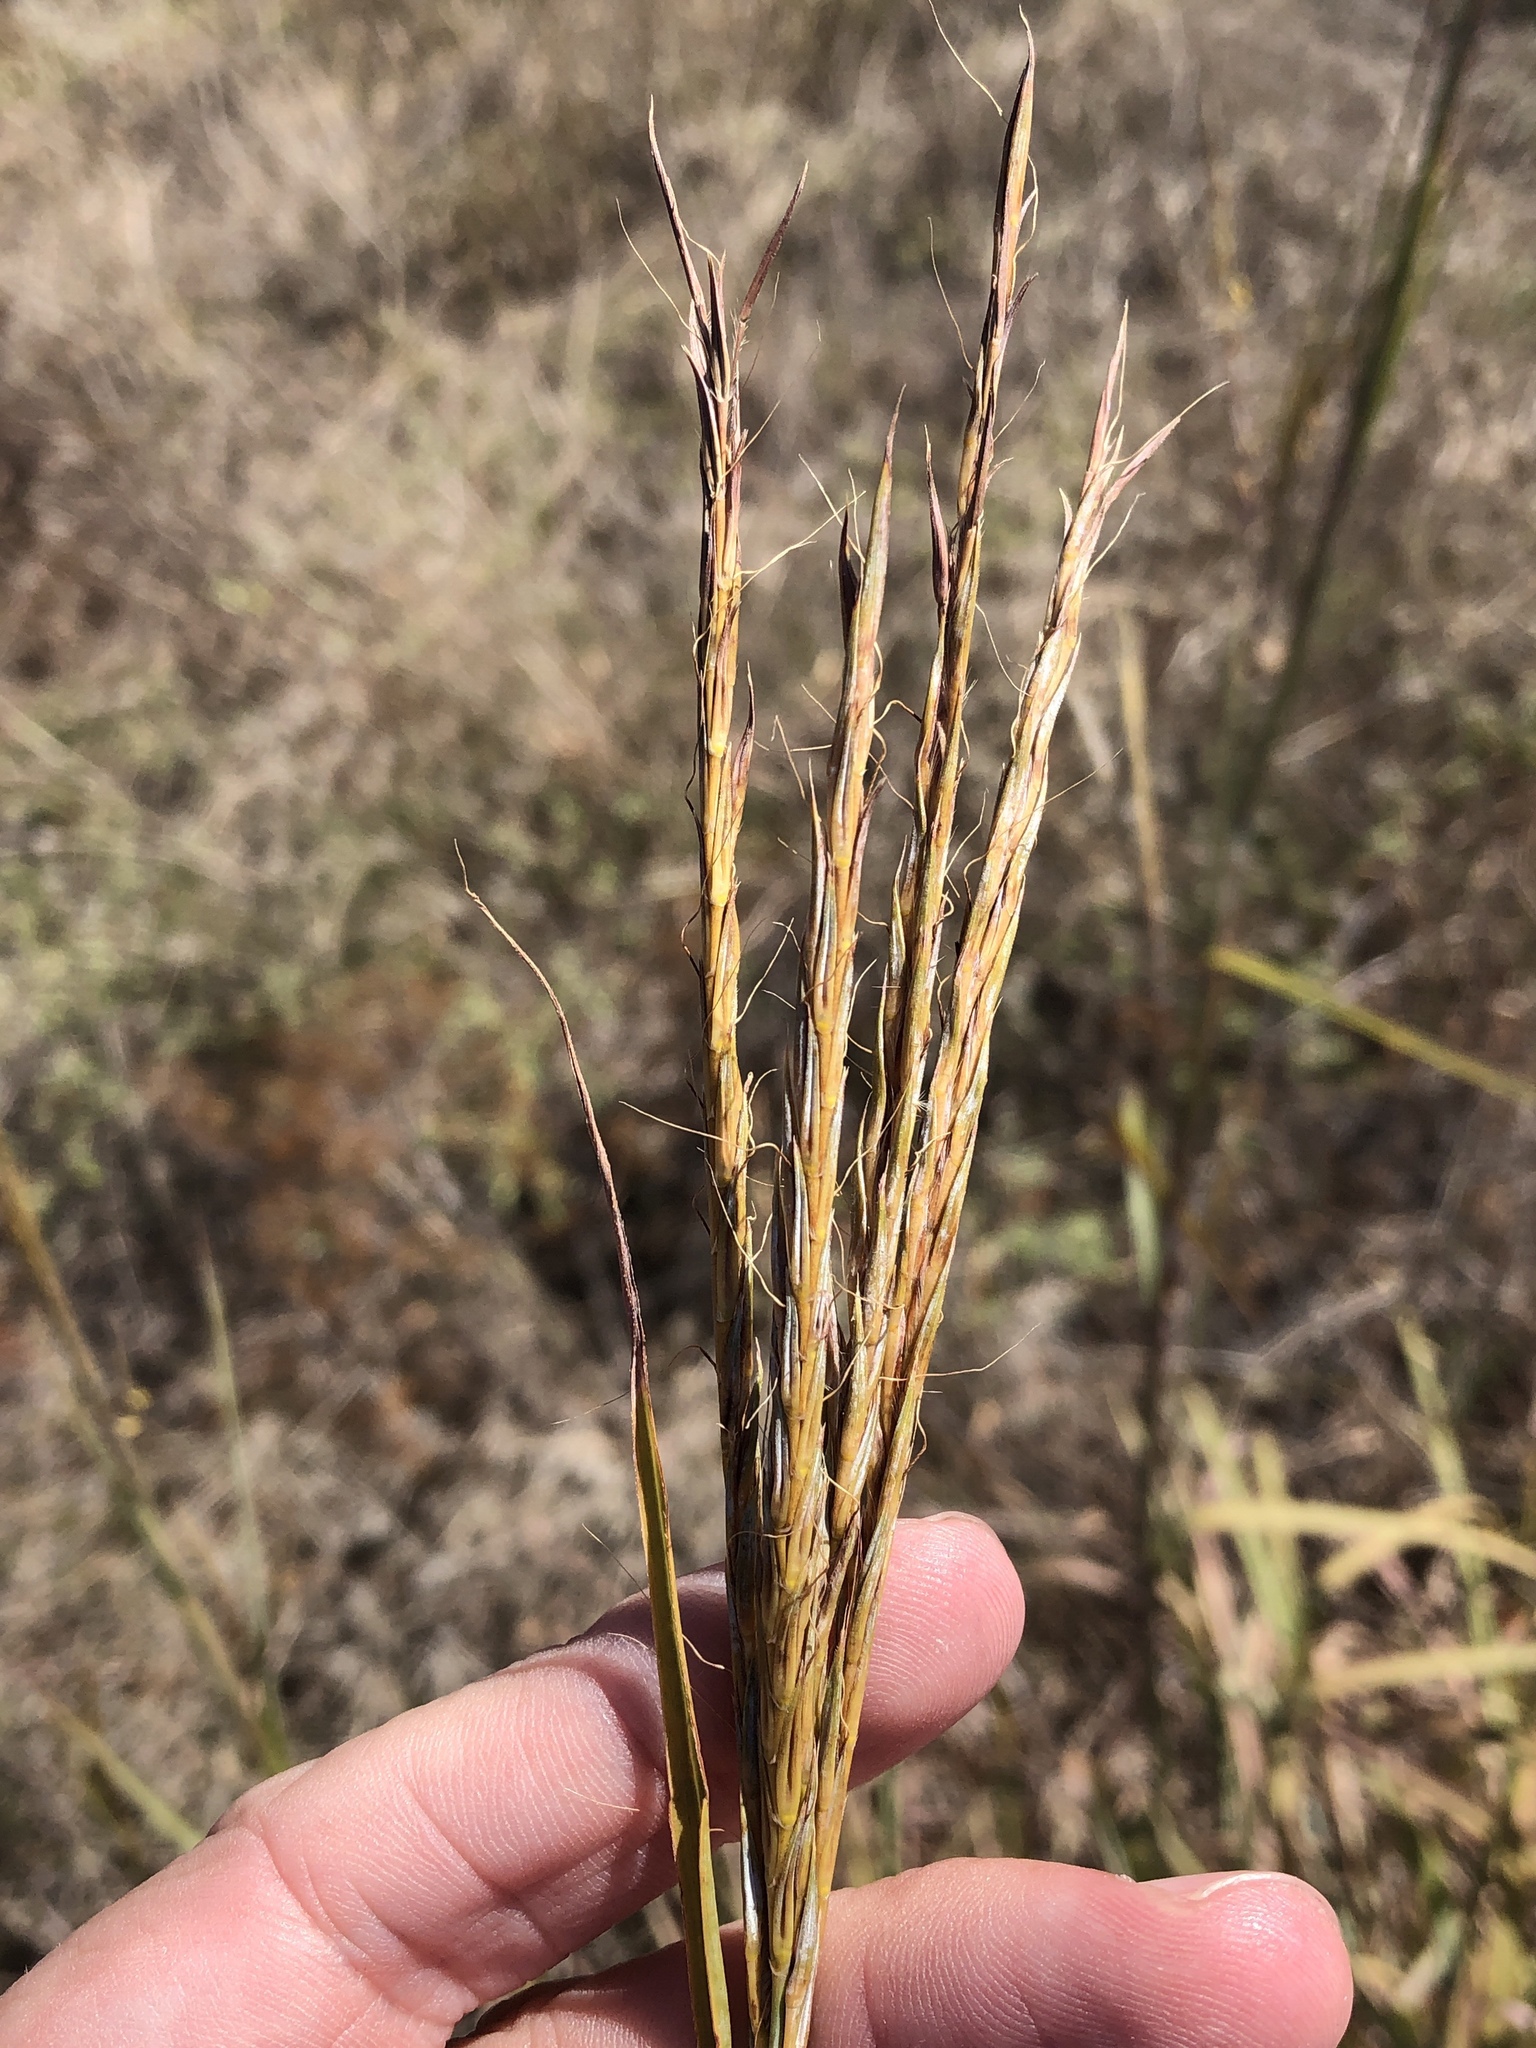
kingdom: Plantae
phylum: Tracheophyta
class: Liliopsida
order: Poales
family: Poaceae
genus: Andropogon
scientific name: Andropogon gerardi
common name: Big bluestem
